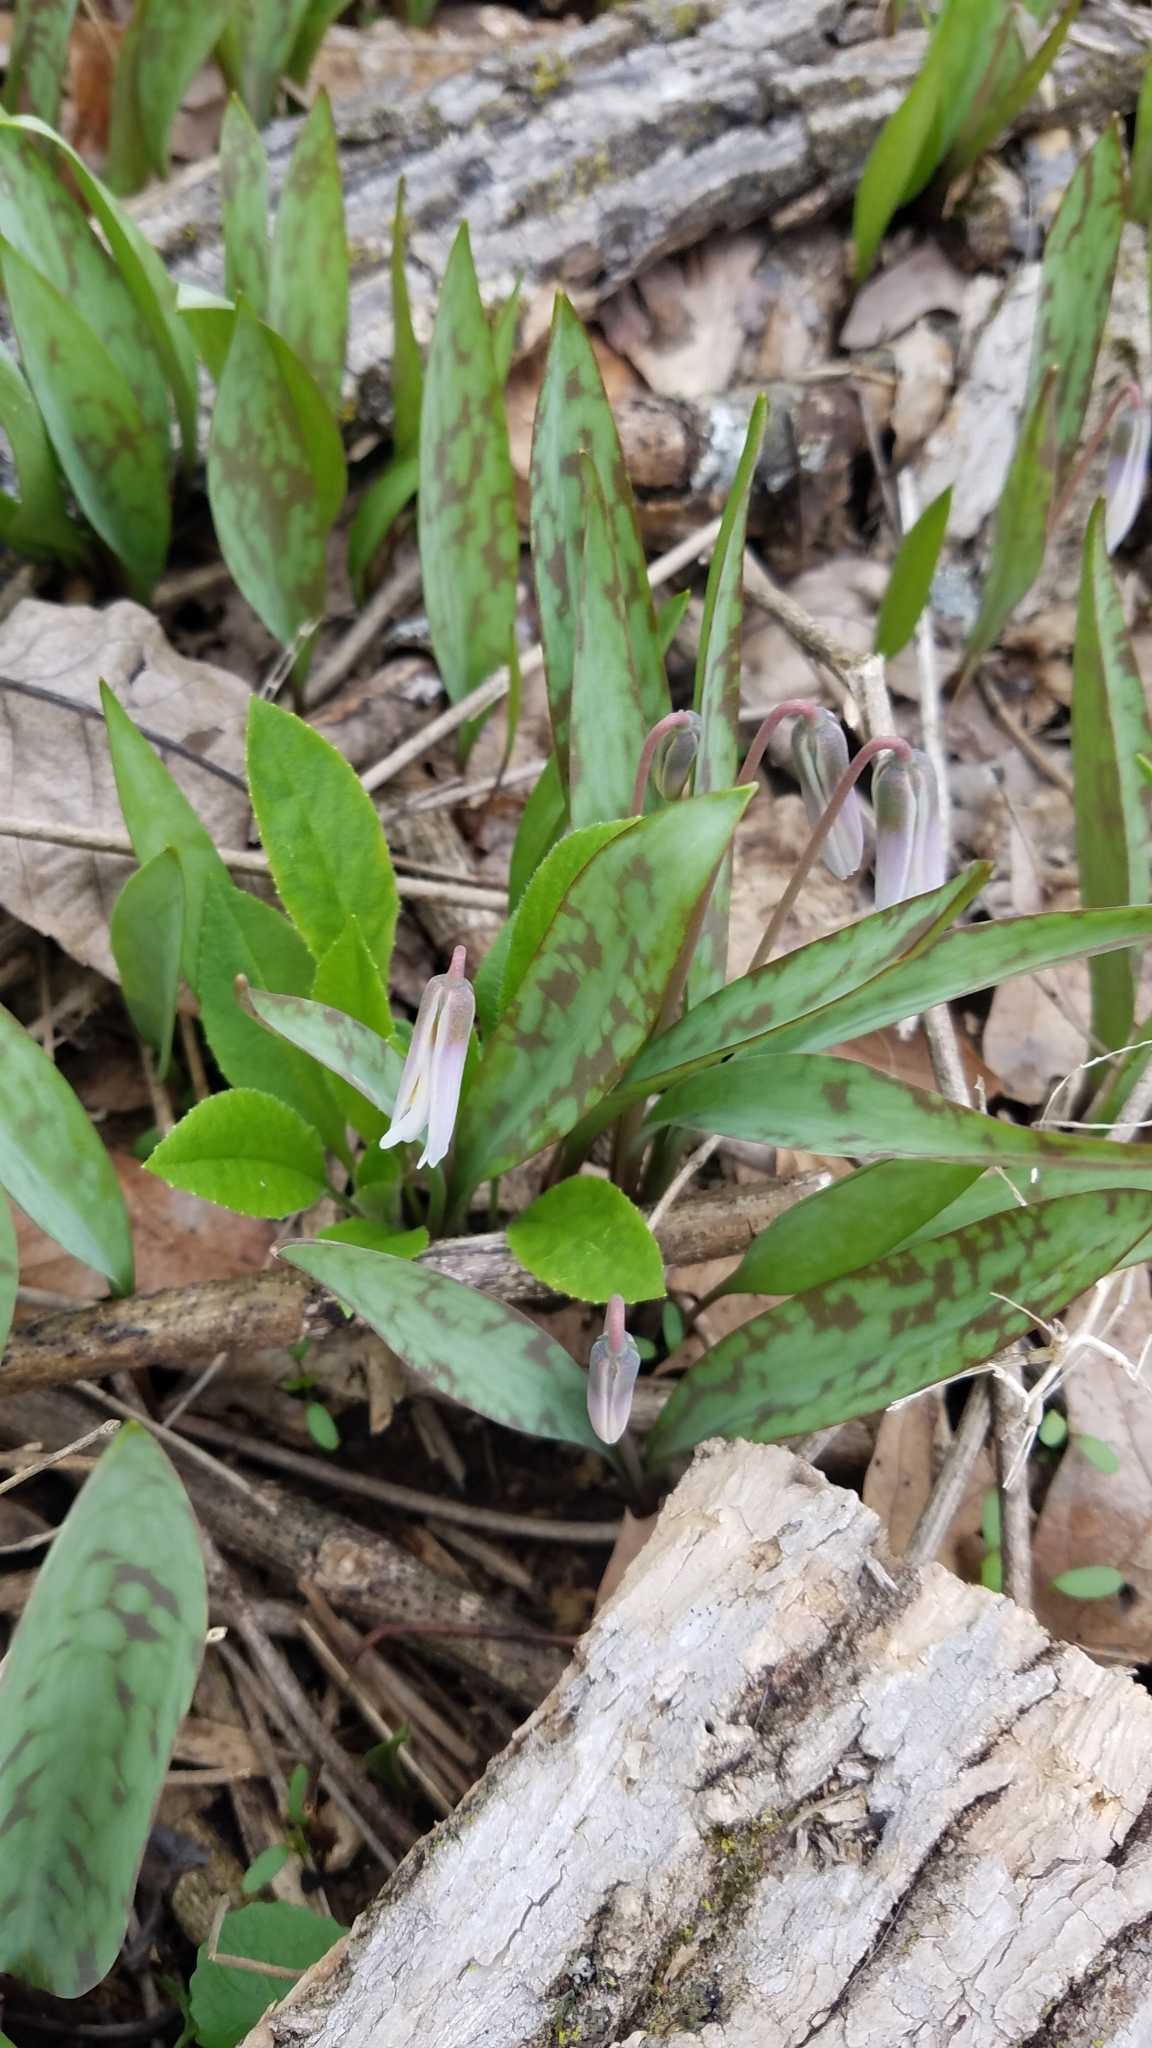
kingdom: Plantae
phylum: Tracheophyta
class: Liliopsida
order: Liliales
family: Liliaceae
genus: Erythronium
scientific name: Erythronium albidum
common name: White trout-lily
